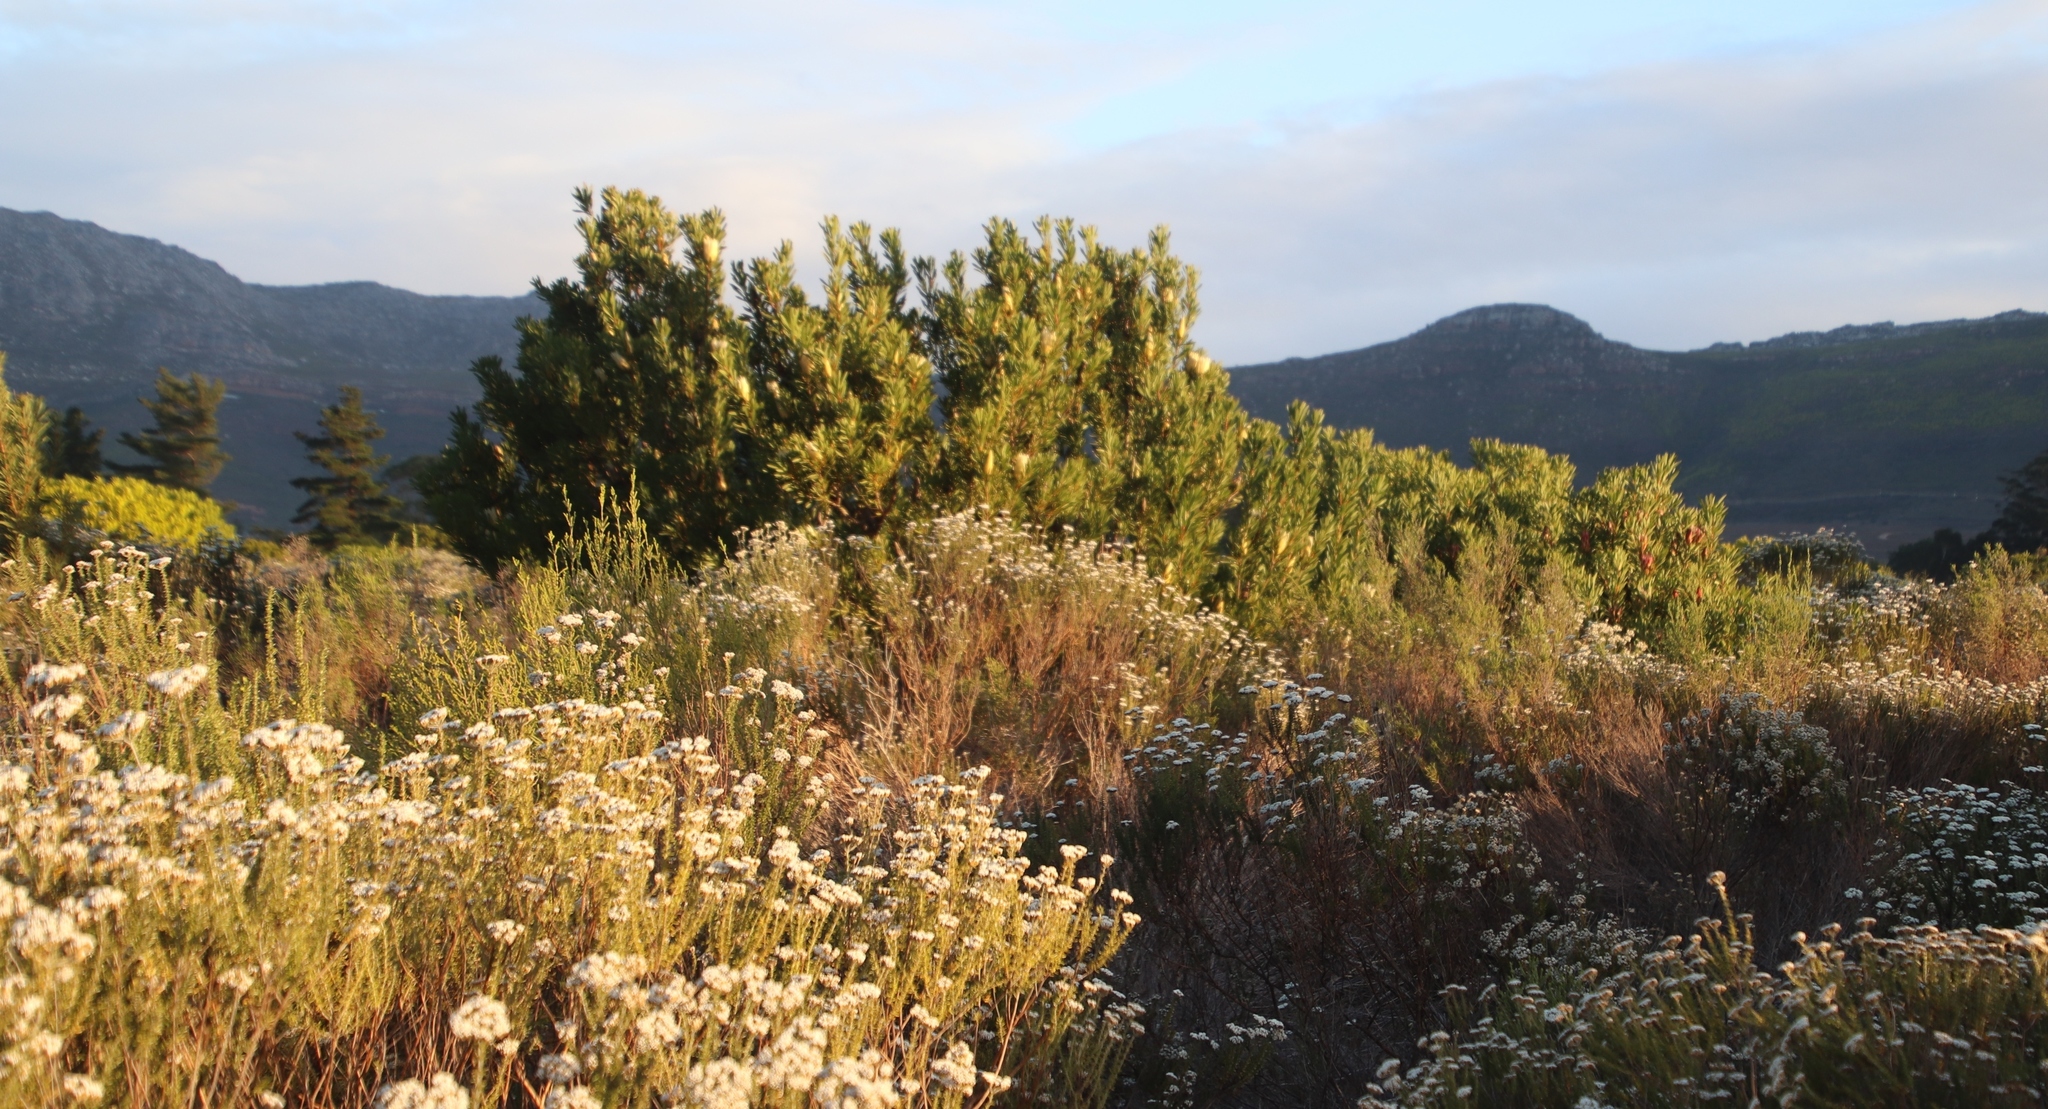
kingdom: Plantae
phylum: Tracheophyta
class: Magnoliopsida
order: Proteales
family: Proteaceae
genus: Protea
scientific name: Protea repens
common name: Sugarbush
